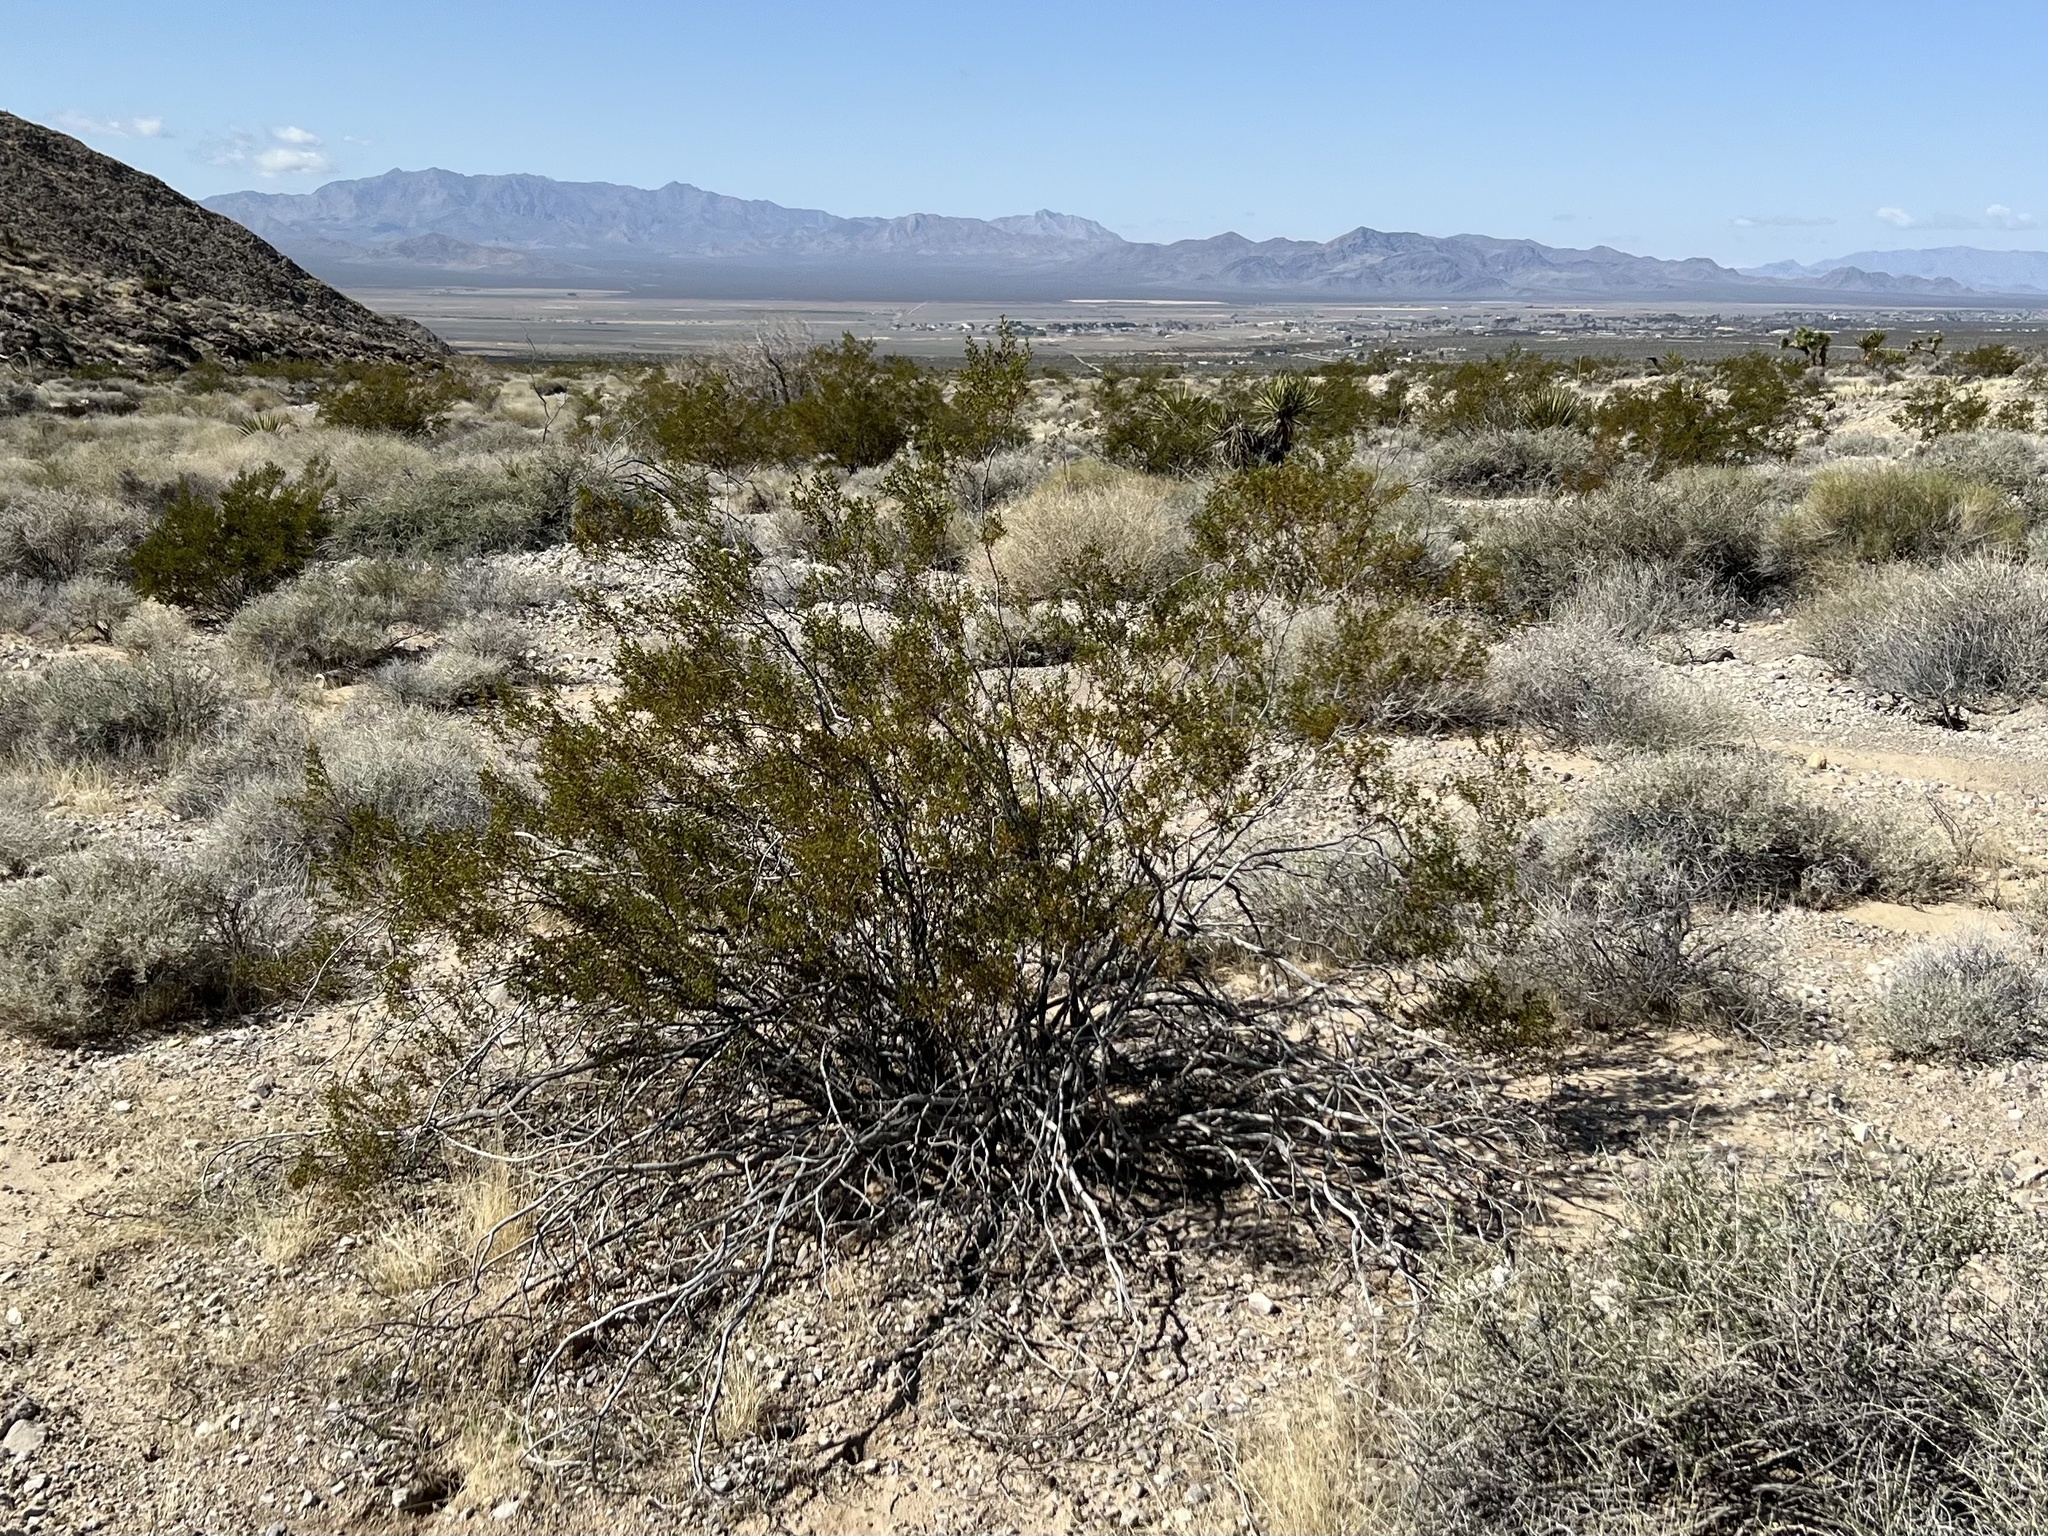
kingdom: Plantae
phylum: Tracheophyta
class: Magnoliopsida
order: Zygophyllales
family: Zygophyllaceae
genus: Larrea
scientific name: Larrea tridentata
